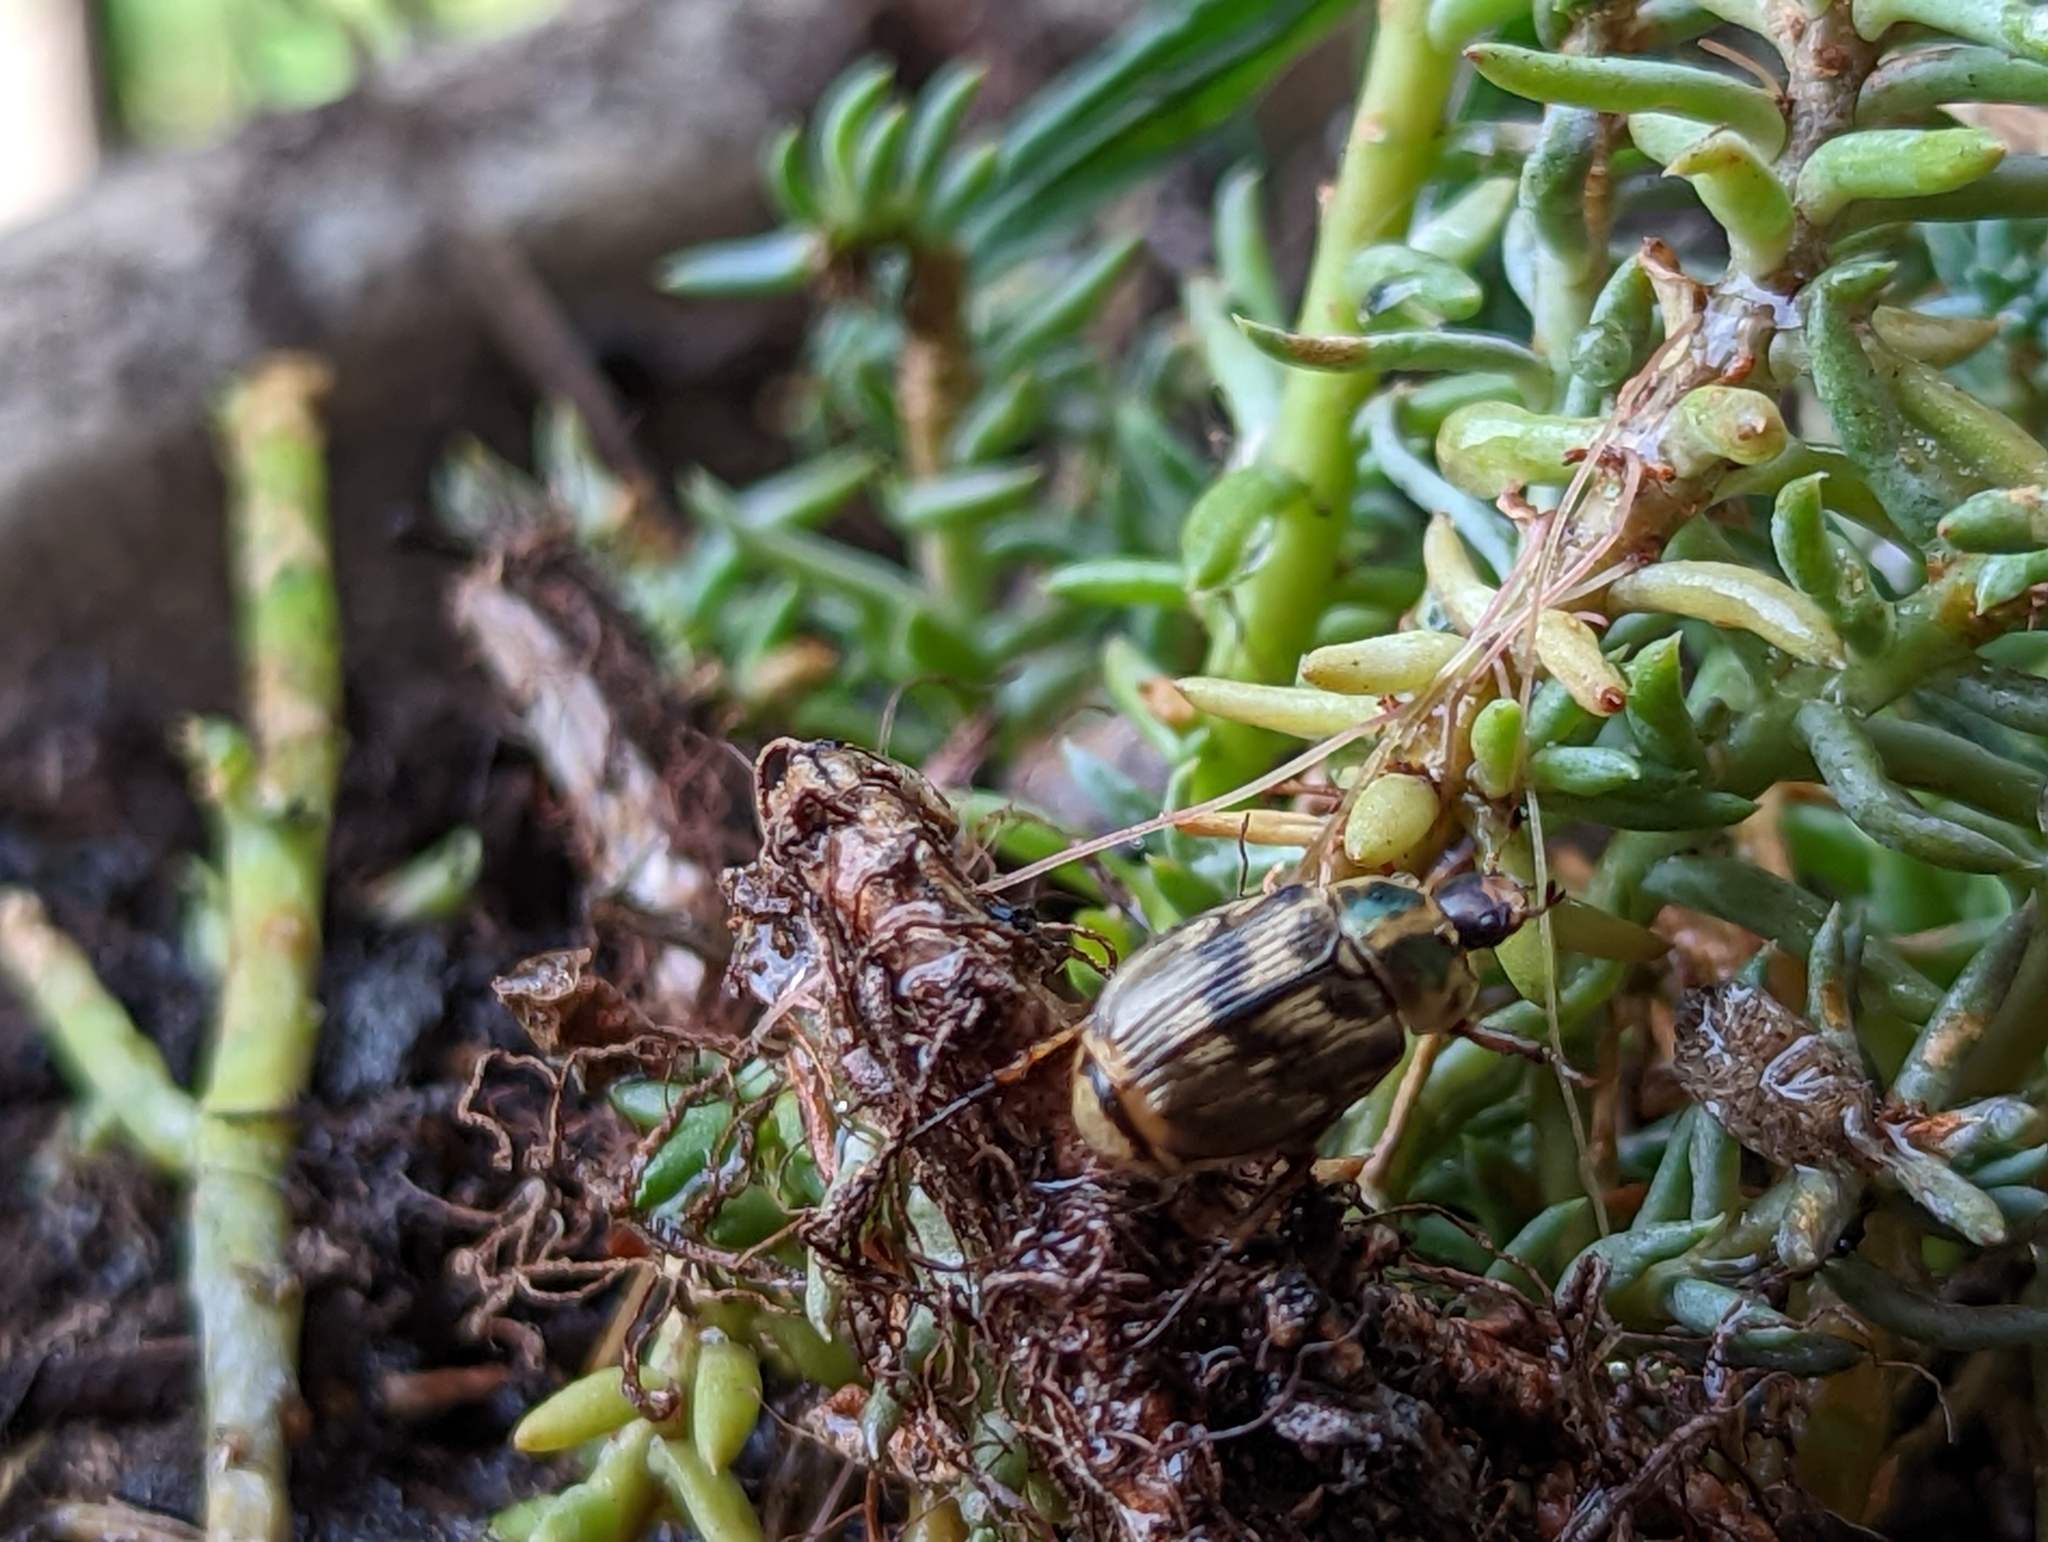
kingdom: Animalia
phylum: Arthropoda
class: Insecta
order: Coleoptera
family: Scarabaeidae
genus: Exomala
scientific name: Exomala orientalis
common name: Oriental beetle
